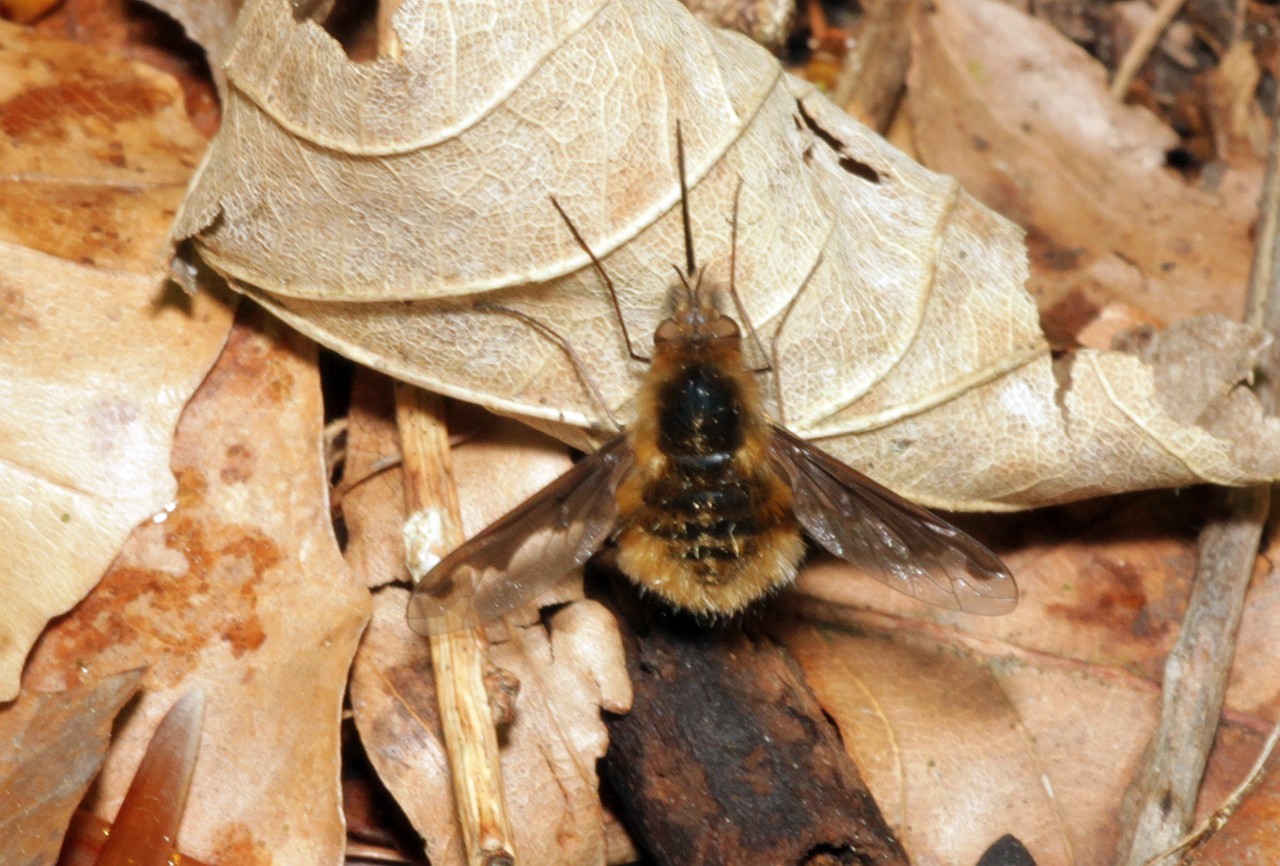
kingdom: Animalia
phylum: Arthropoda
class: Insecta
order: Diptera
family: Bombyliidae
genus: Bombylius
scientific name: Bombylius major
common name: Bee fly
